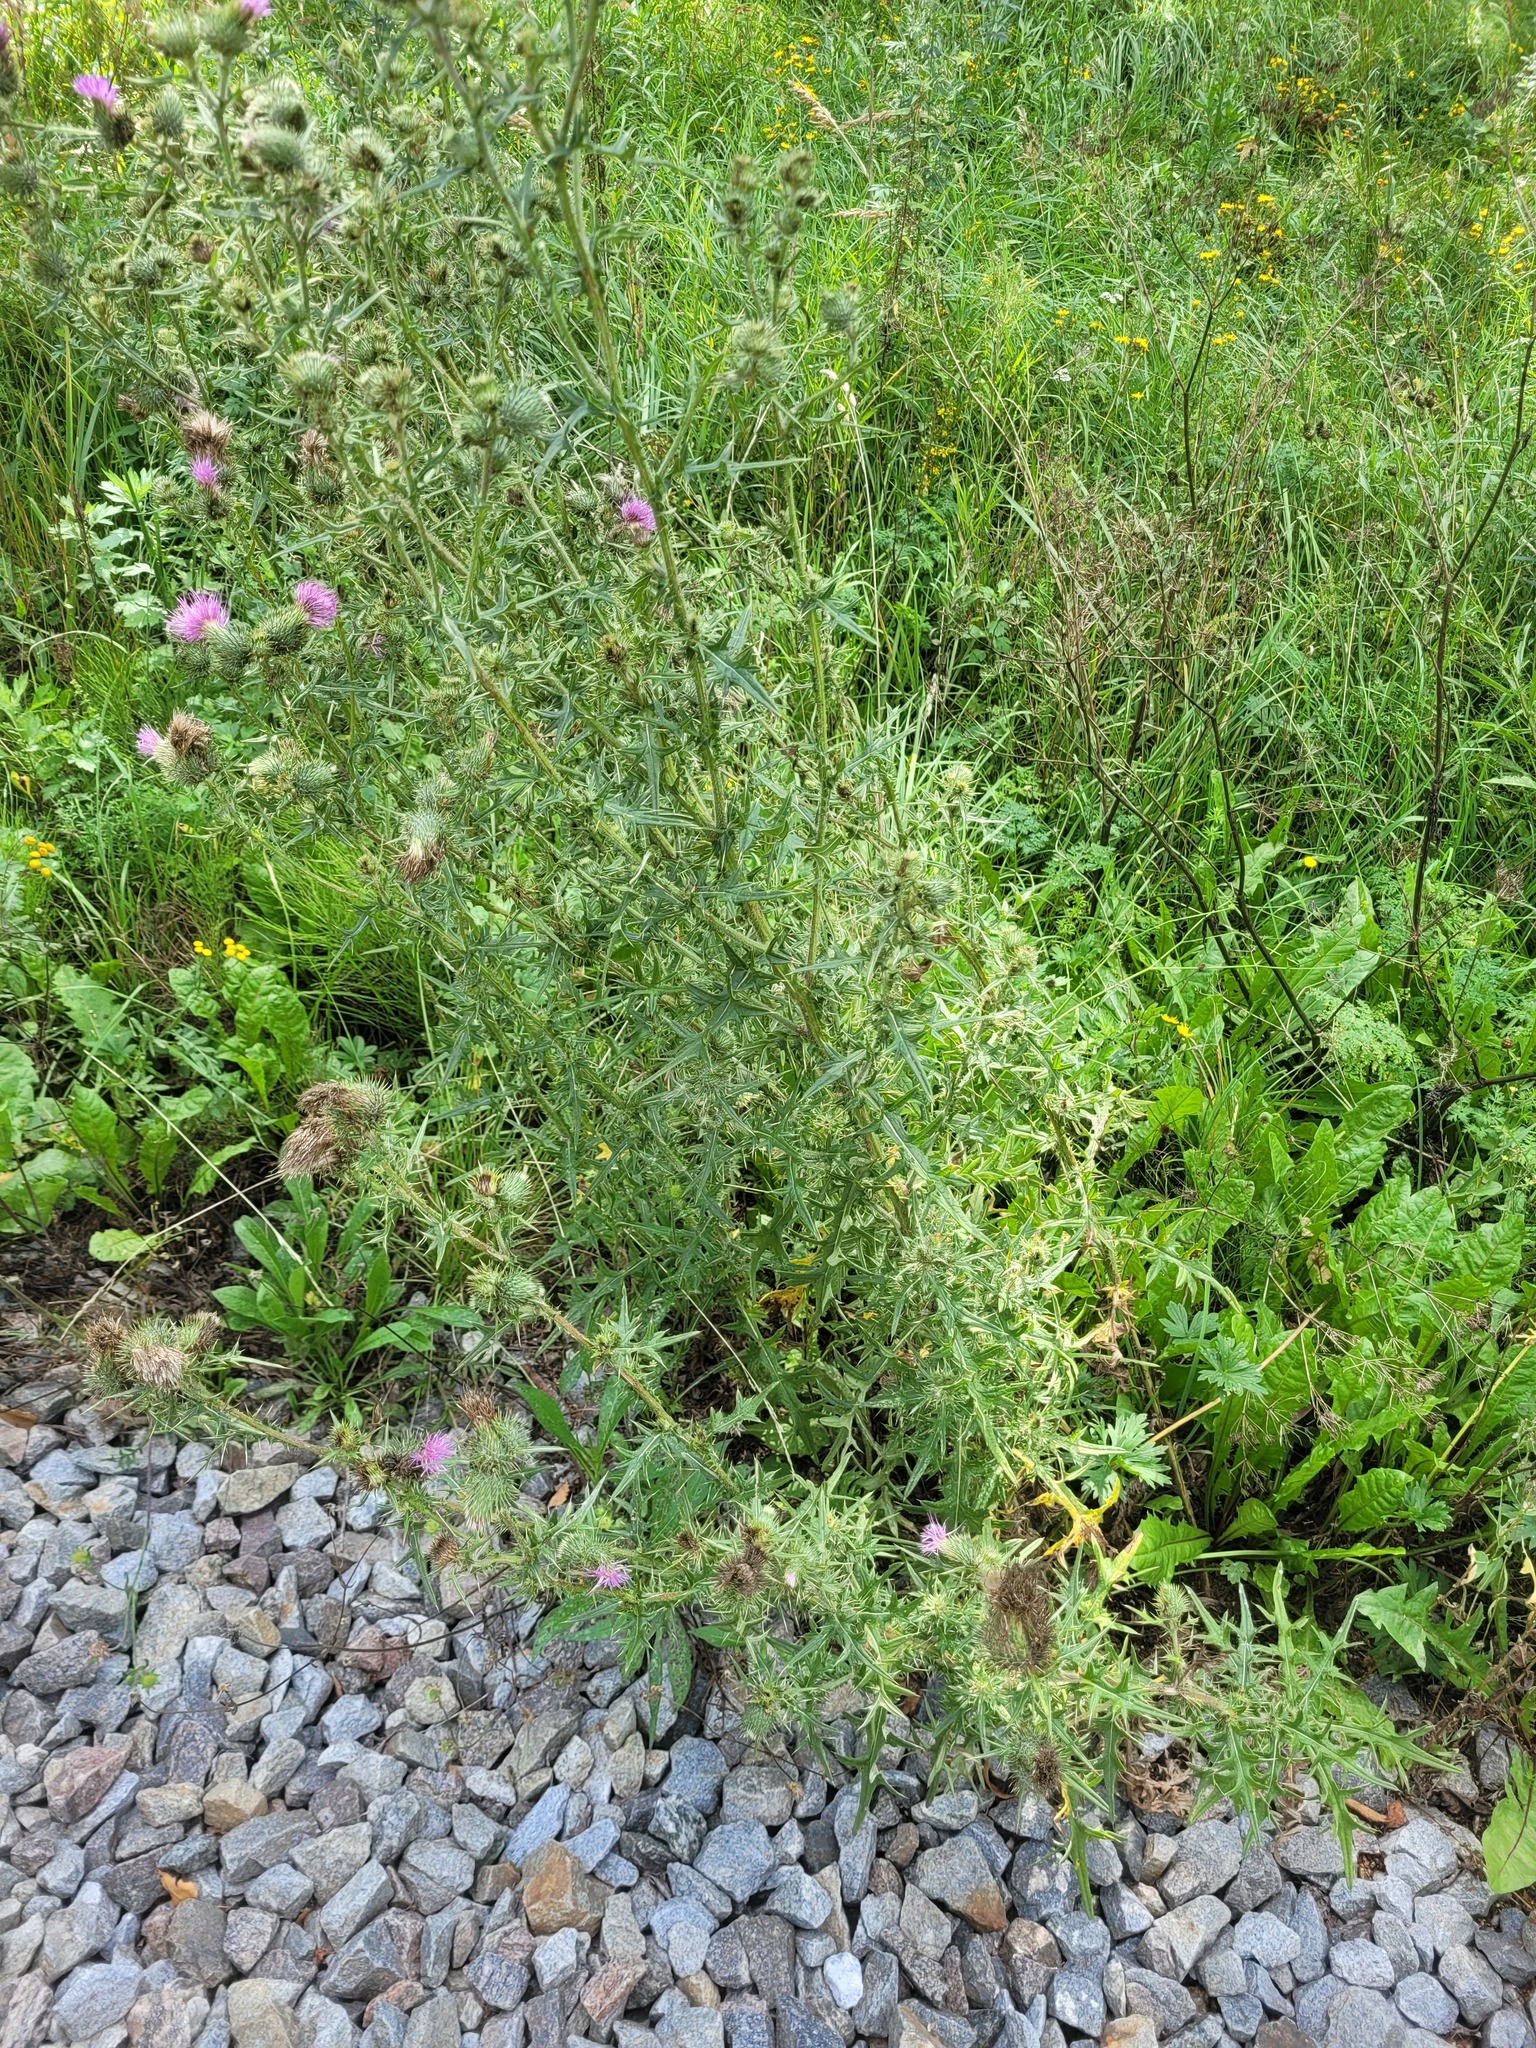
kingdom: Plantae
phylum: Tracheophyta
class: Magnoliopsida
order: Asterales
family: Asteraceae
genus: Cirsium
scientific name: Cirsium vulgare
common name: Bull thistle
